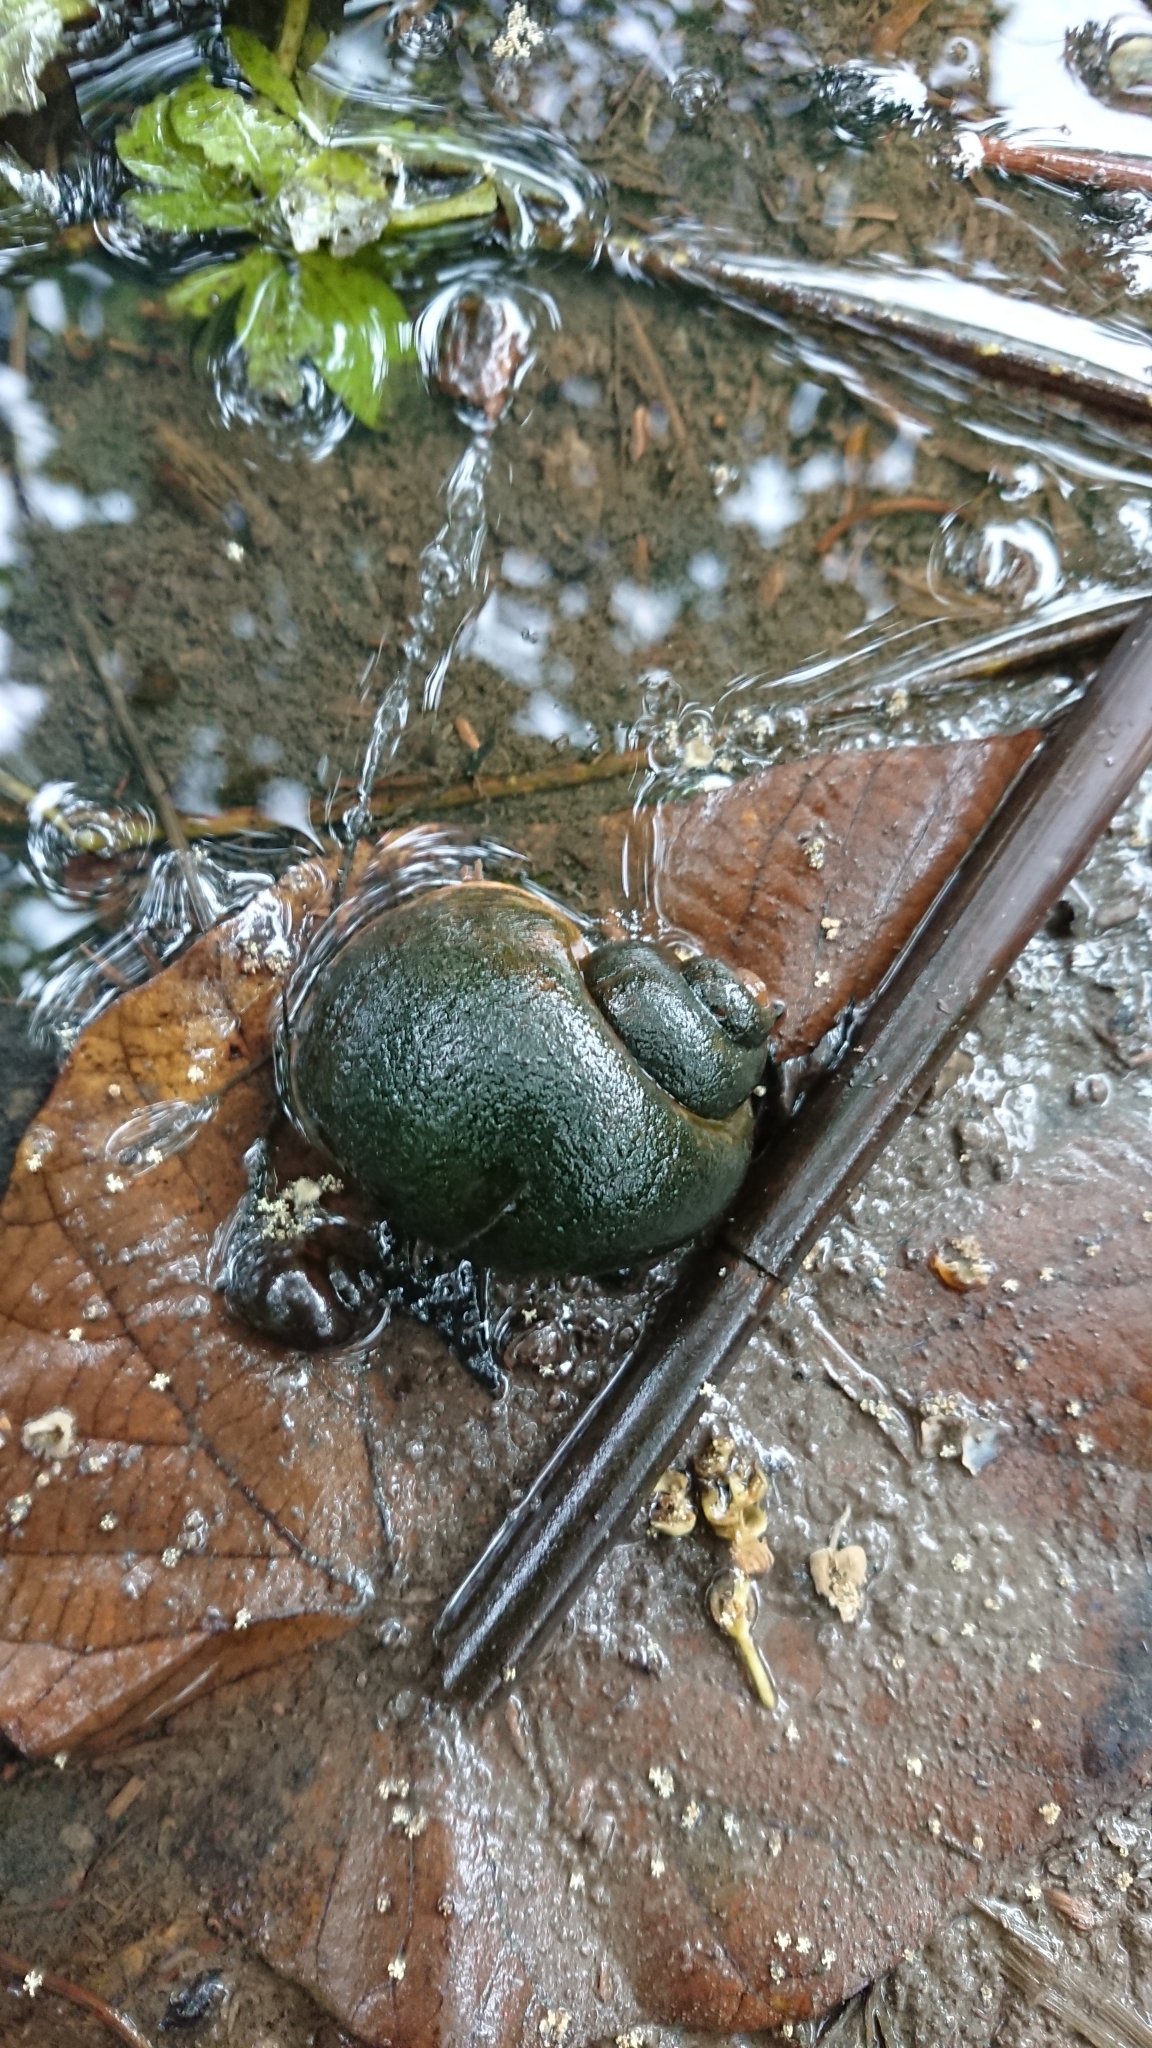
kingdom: Animalia
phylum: Mollusca
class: Gastropoda
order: Architaenioglossa
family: Ampullariidae
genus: Pomacea
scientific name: Pomacea canaliculata
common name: Channeled applesnail
